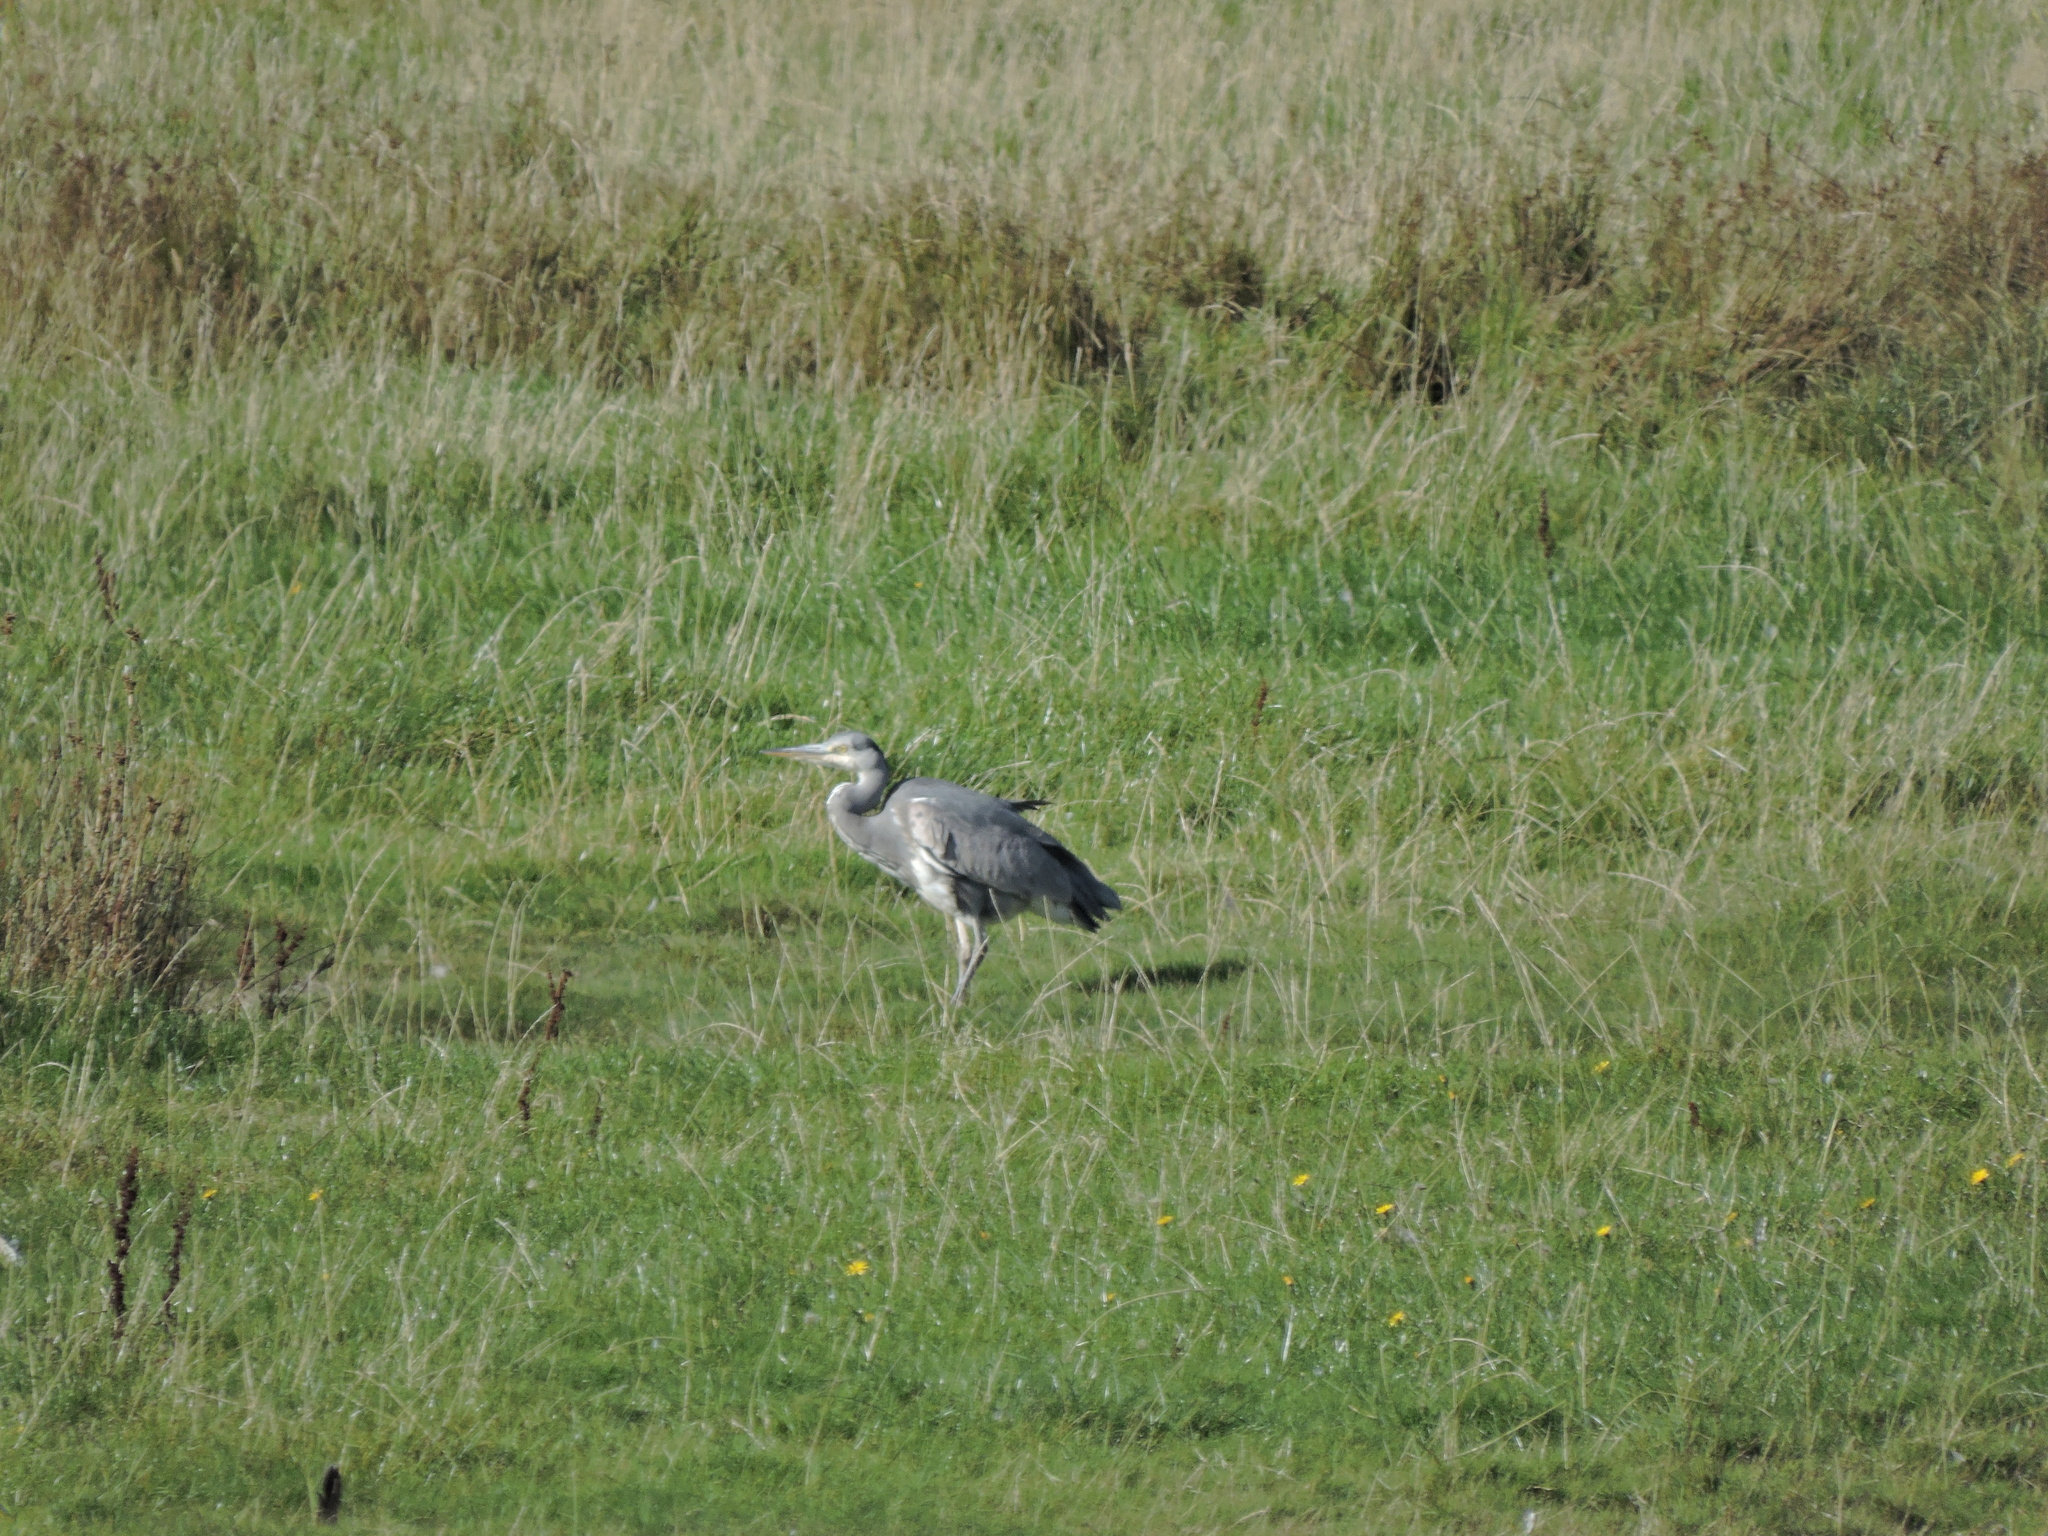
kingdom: Animalia
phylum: Chordata
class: Aves
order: Pelecaniformes
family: Ardeidae
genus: Ardea
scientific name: Ardea cinerea
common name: Grey heron
